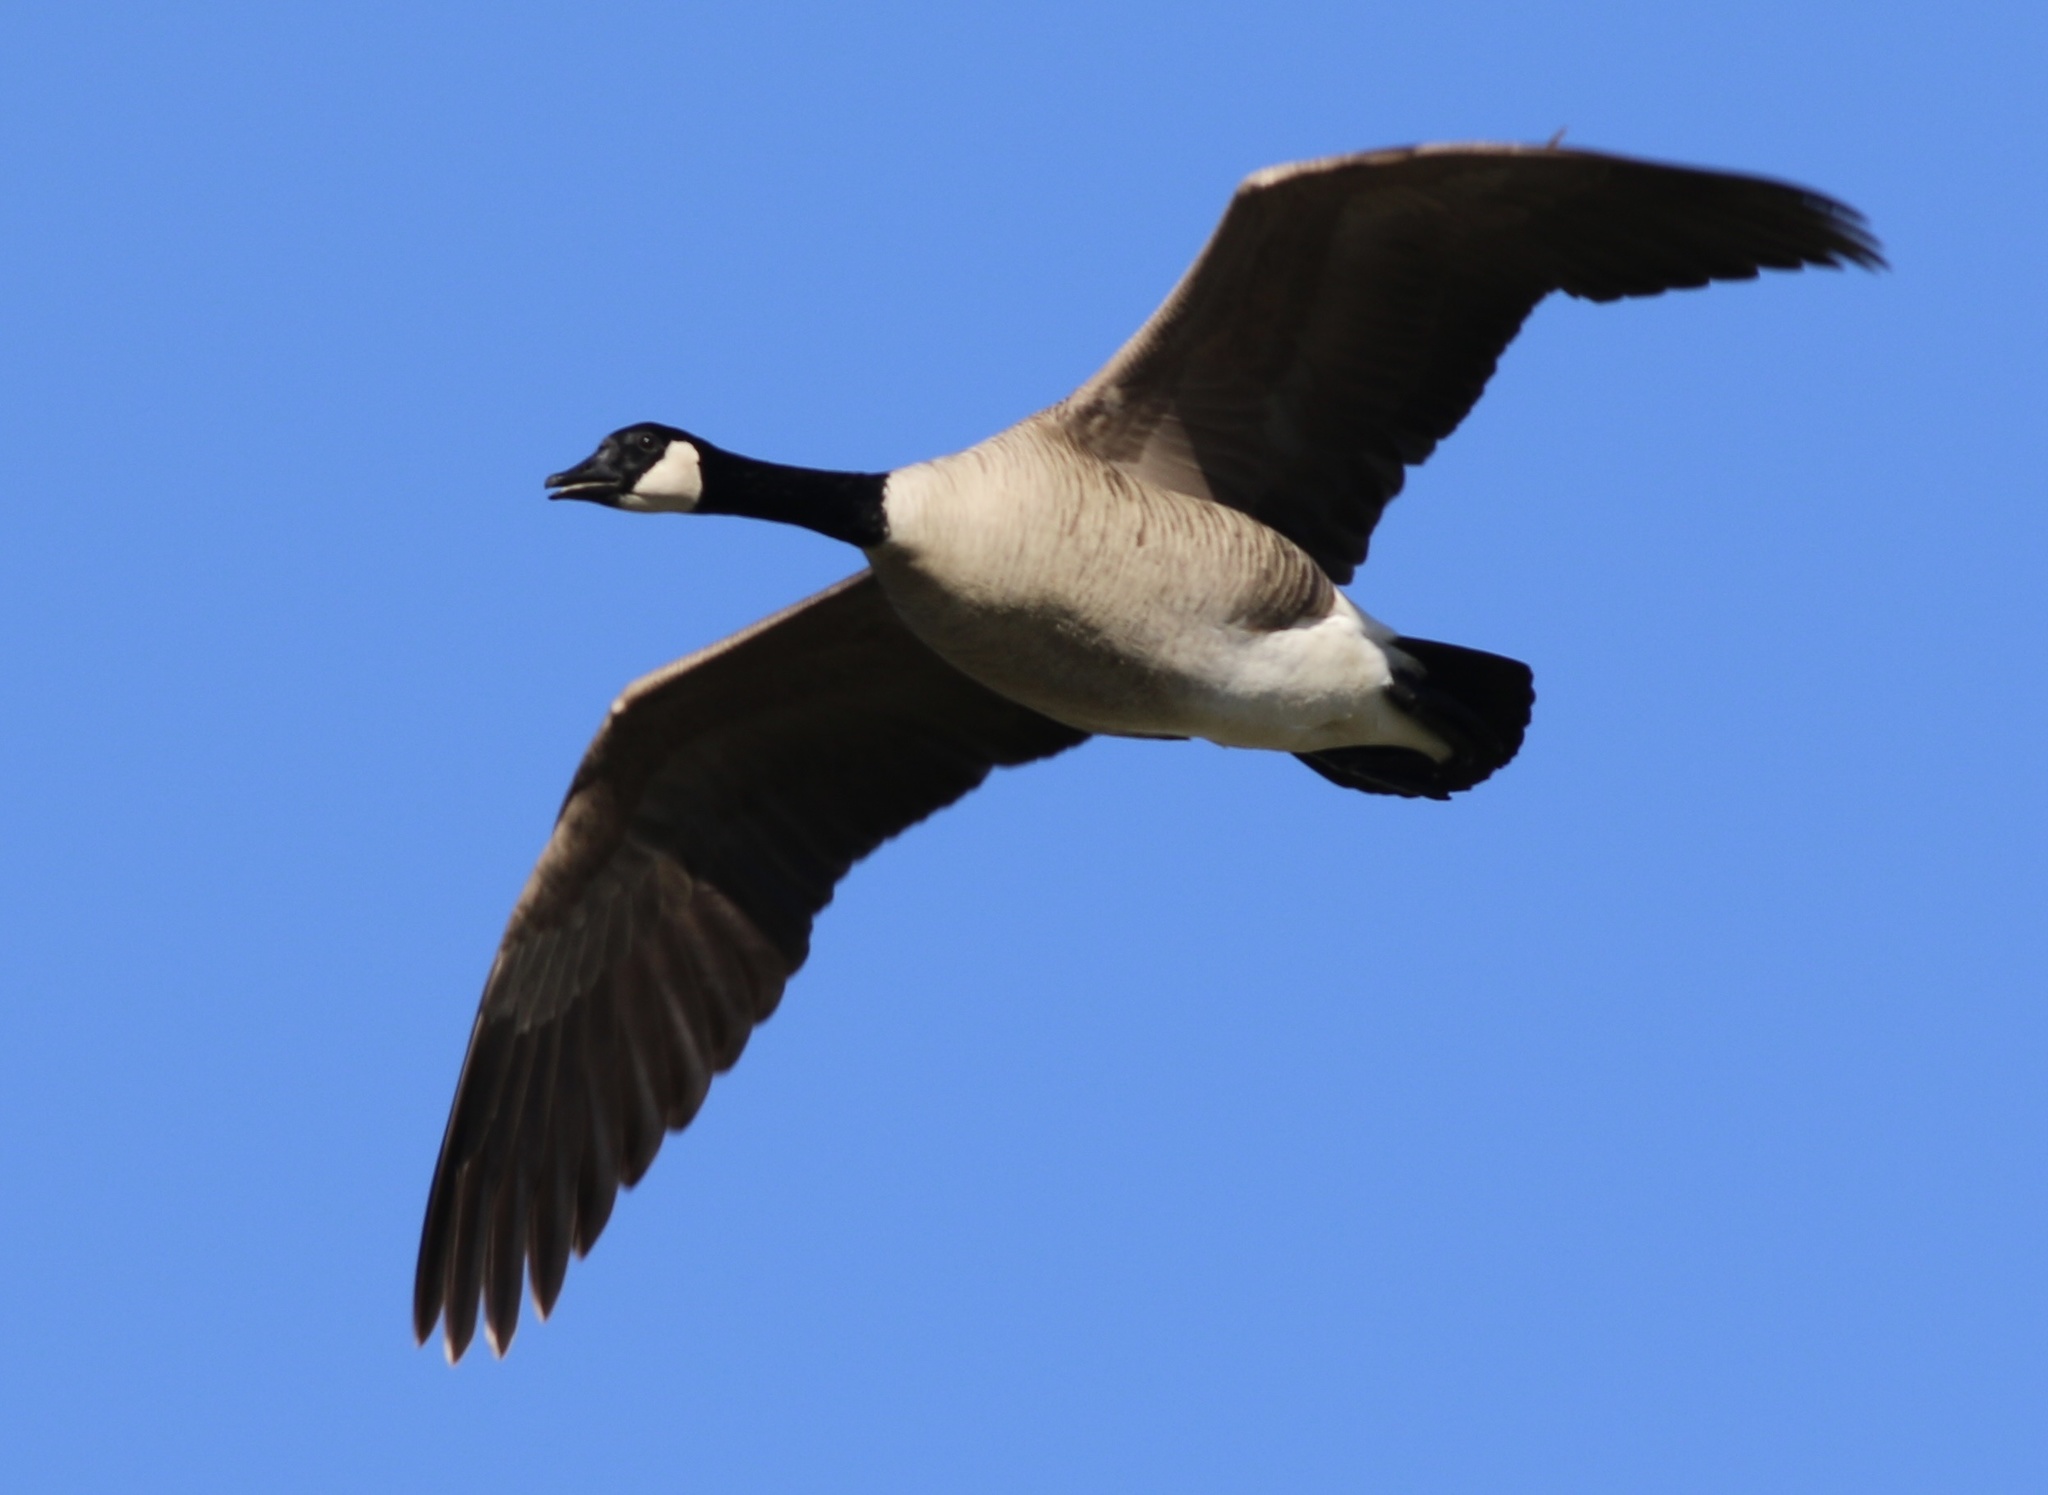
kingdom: Animalia
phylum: Chordata
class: Aves
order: Anseriformes
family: Anatidae
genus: Branta
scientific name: Branta canadensis
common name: Canada goose
